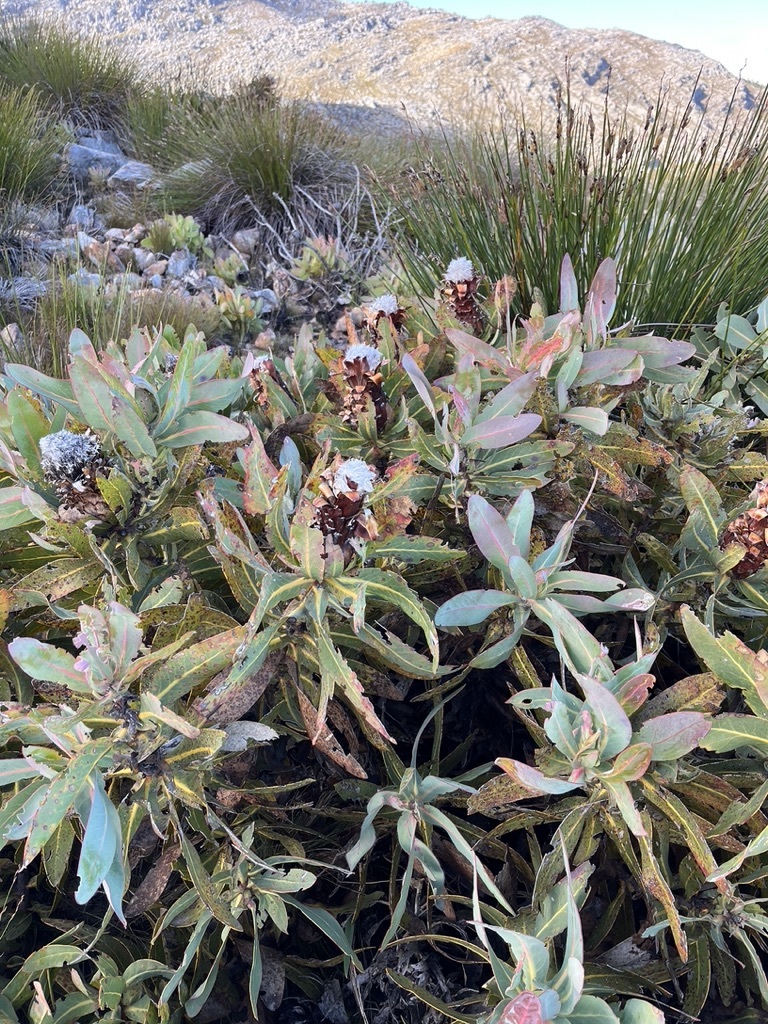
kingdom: Plantae
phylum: Tracheophyta
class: Magnoliopsida
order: Proteales
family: Proteaceae
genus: Protea
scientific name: Protea magnifica
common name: Bearded sugarbush
